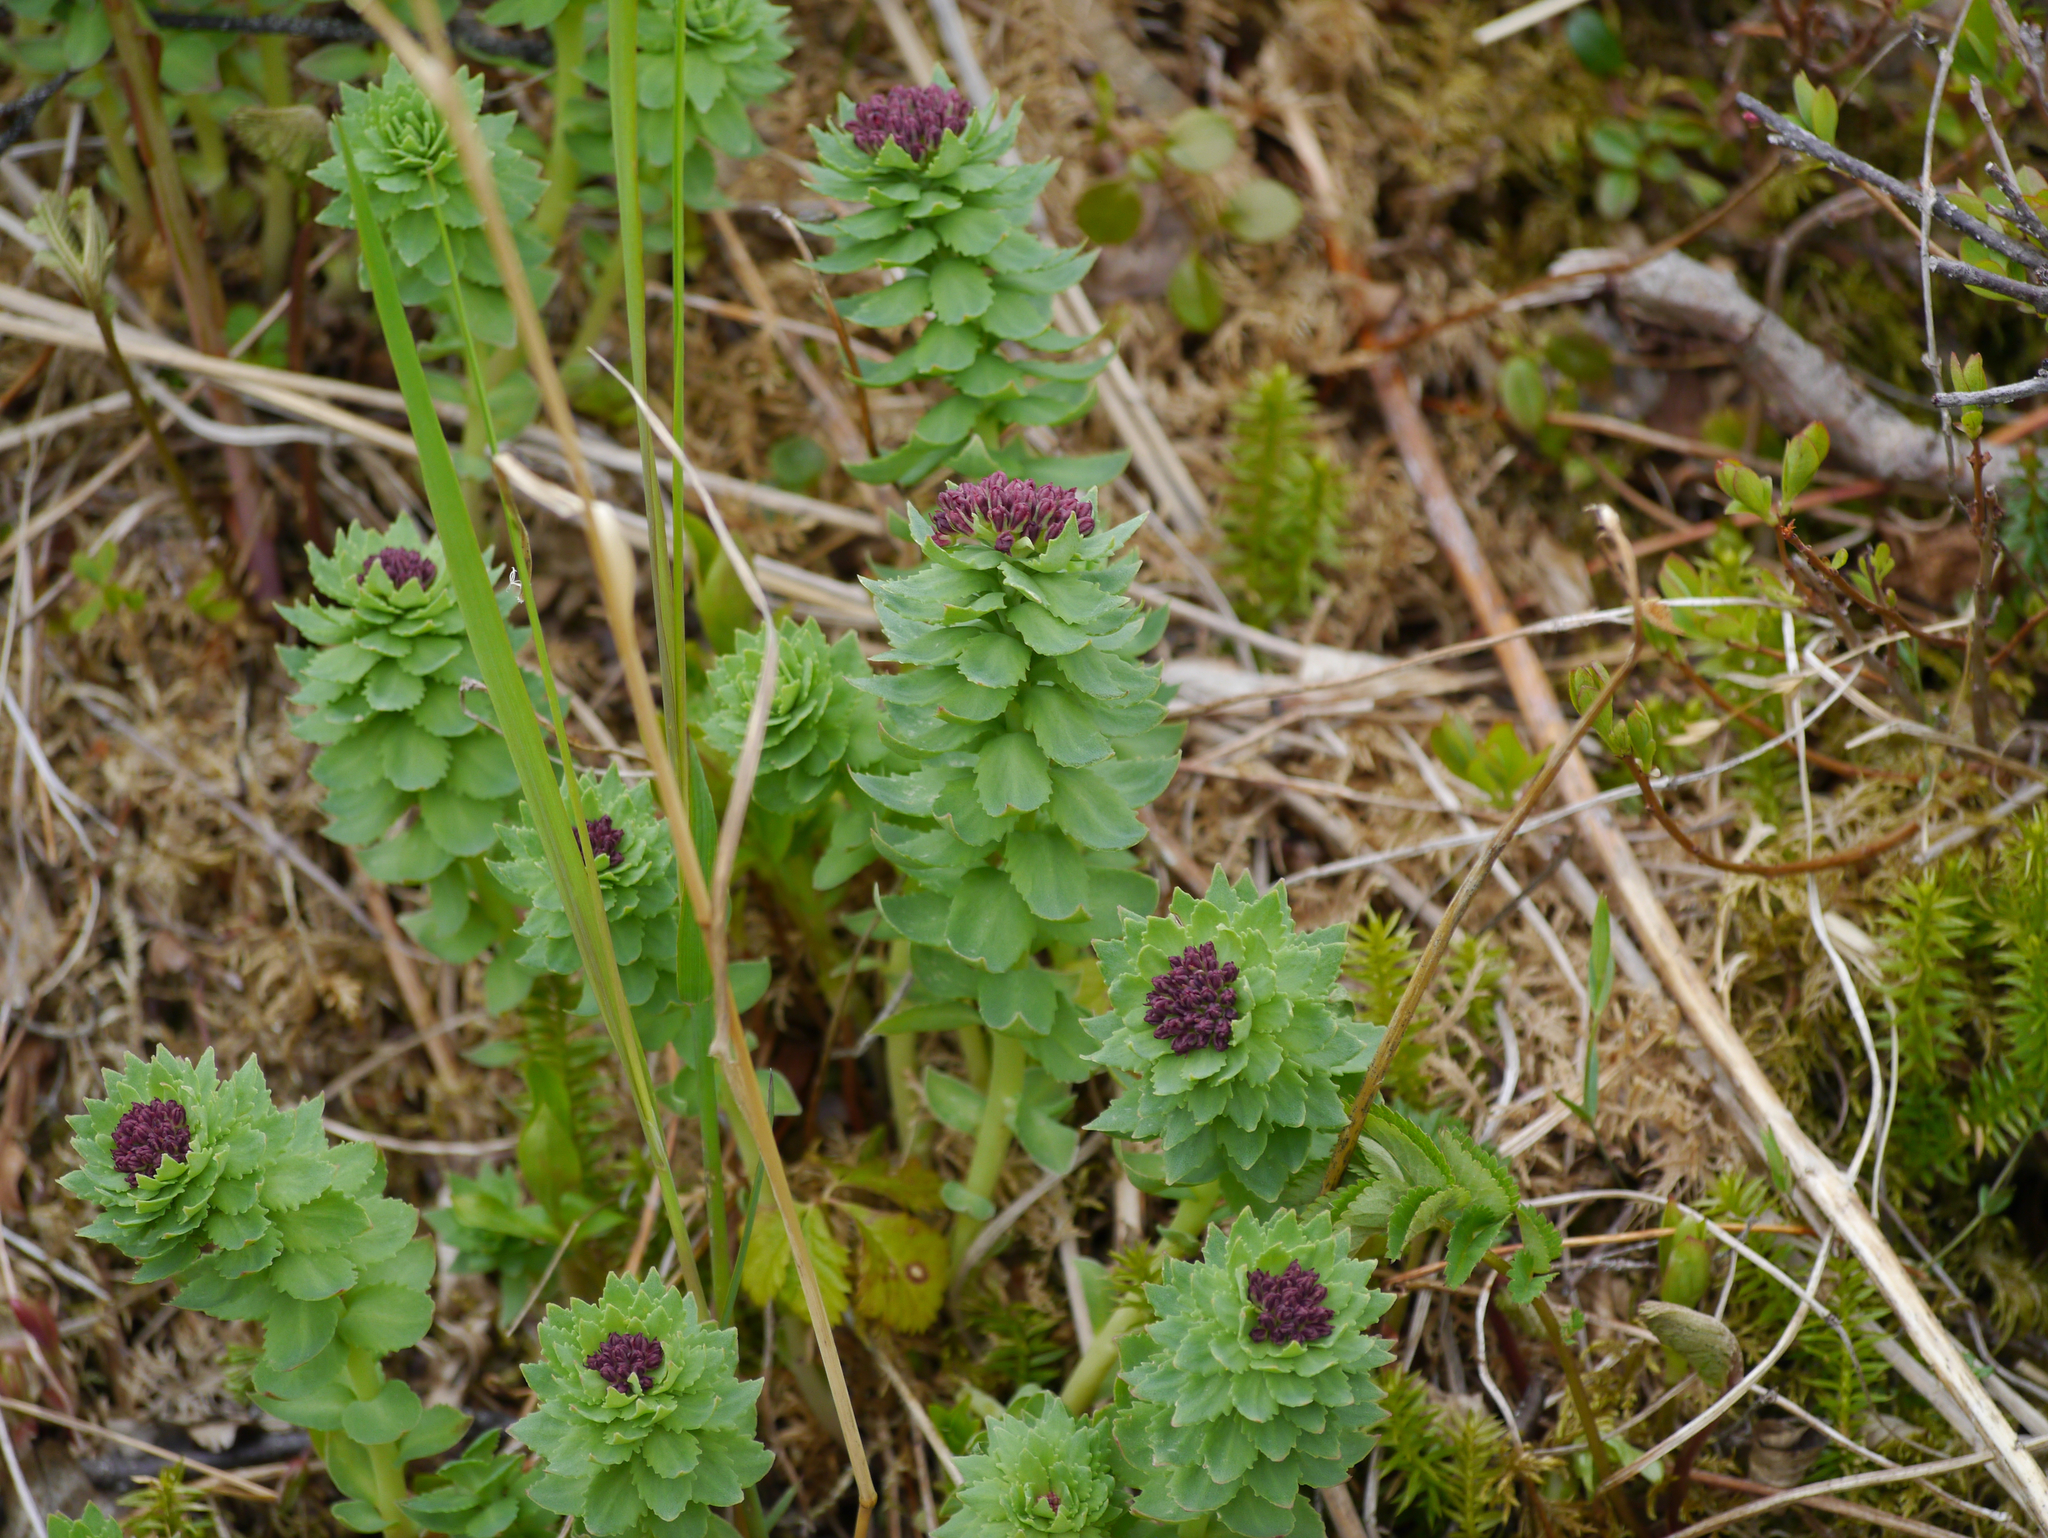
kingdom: Plantae
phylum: Tracheophyta
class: Magnoliopsida
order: Saxifragales
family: Crassulaceae
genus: Rhodiola
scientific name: Rhodiola integrifolia
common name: Western roseroot
